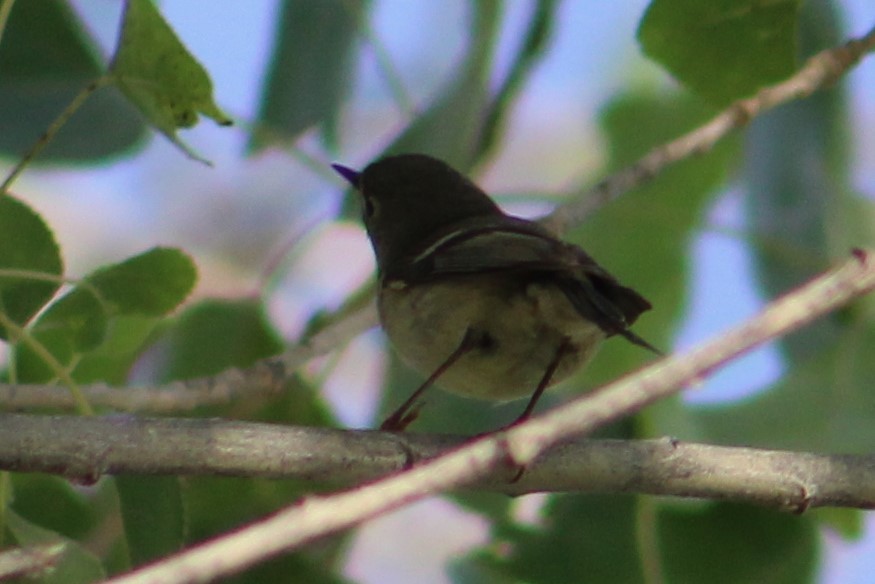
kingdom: Animalia
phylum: Chordata
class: Aves
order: Passeriformes
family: Regulidae
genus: Regulus
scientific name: Regulus calendula
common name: Ruby-crowned kinglet
